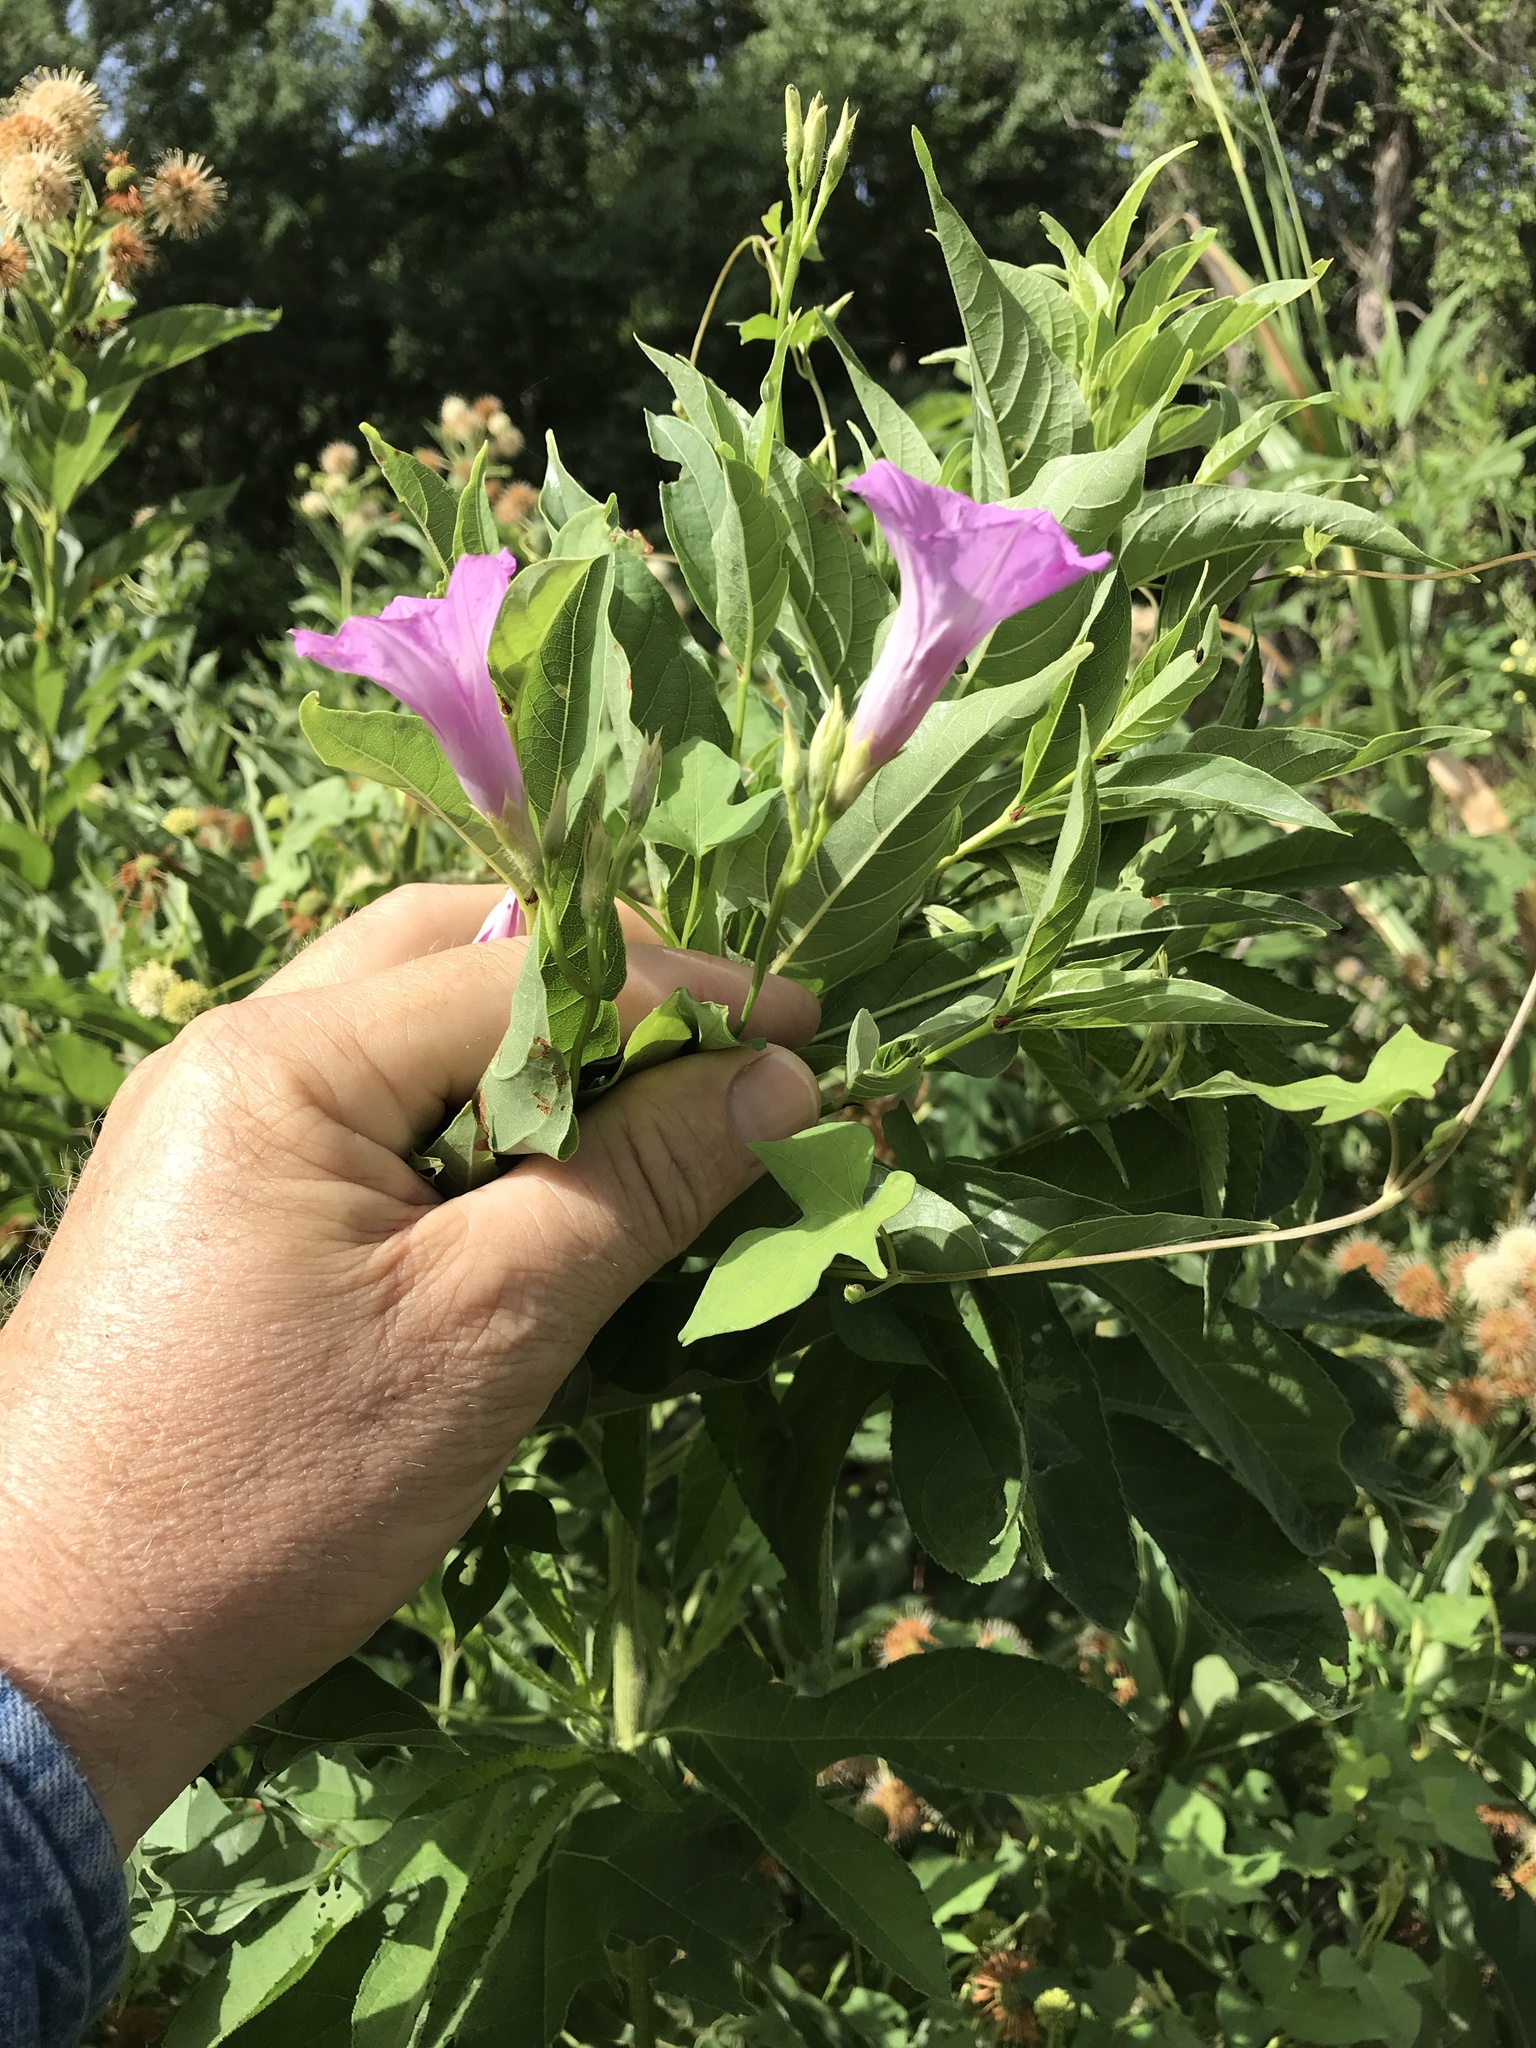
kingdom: Plantae
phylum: Tracheophyta
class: Magnoliopsida
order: Solanales
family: Convolvulaceae
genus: Ipomoea
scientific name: Ipomoea cordatotriloba
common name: Cotton morning glory
